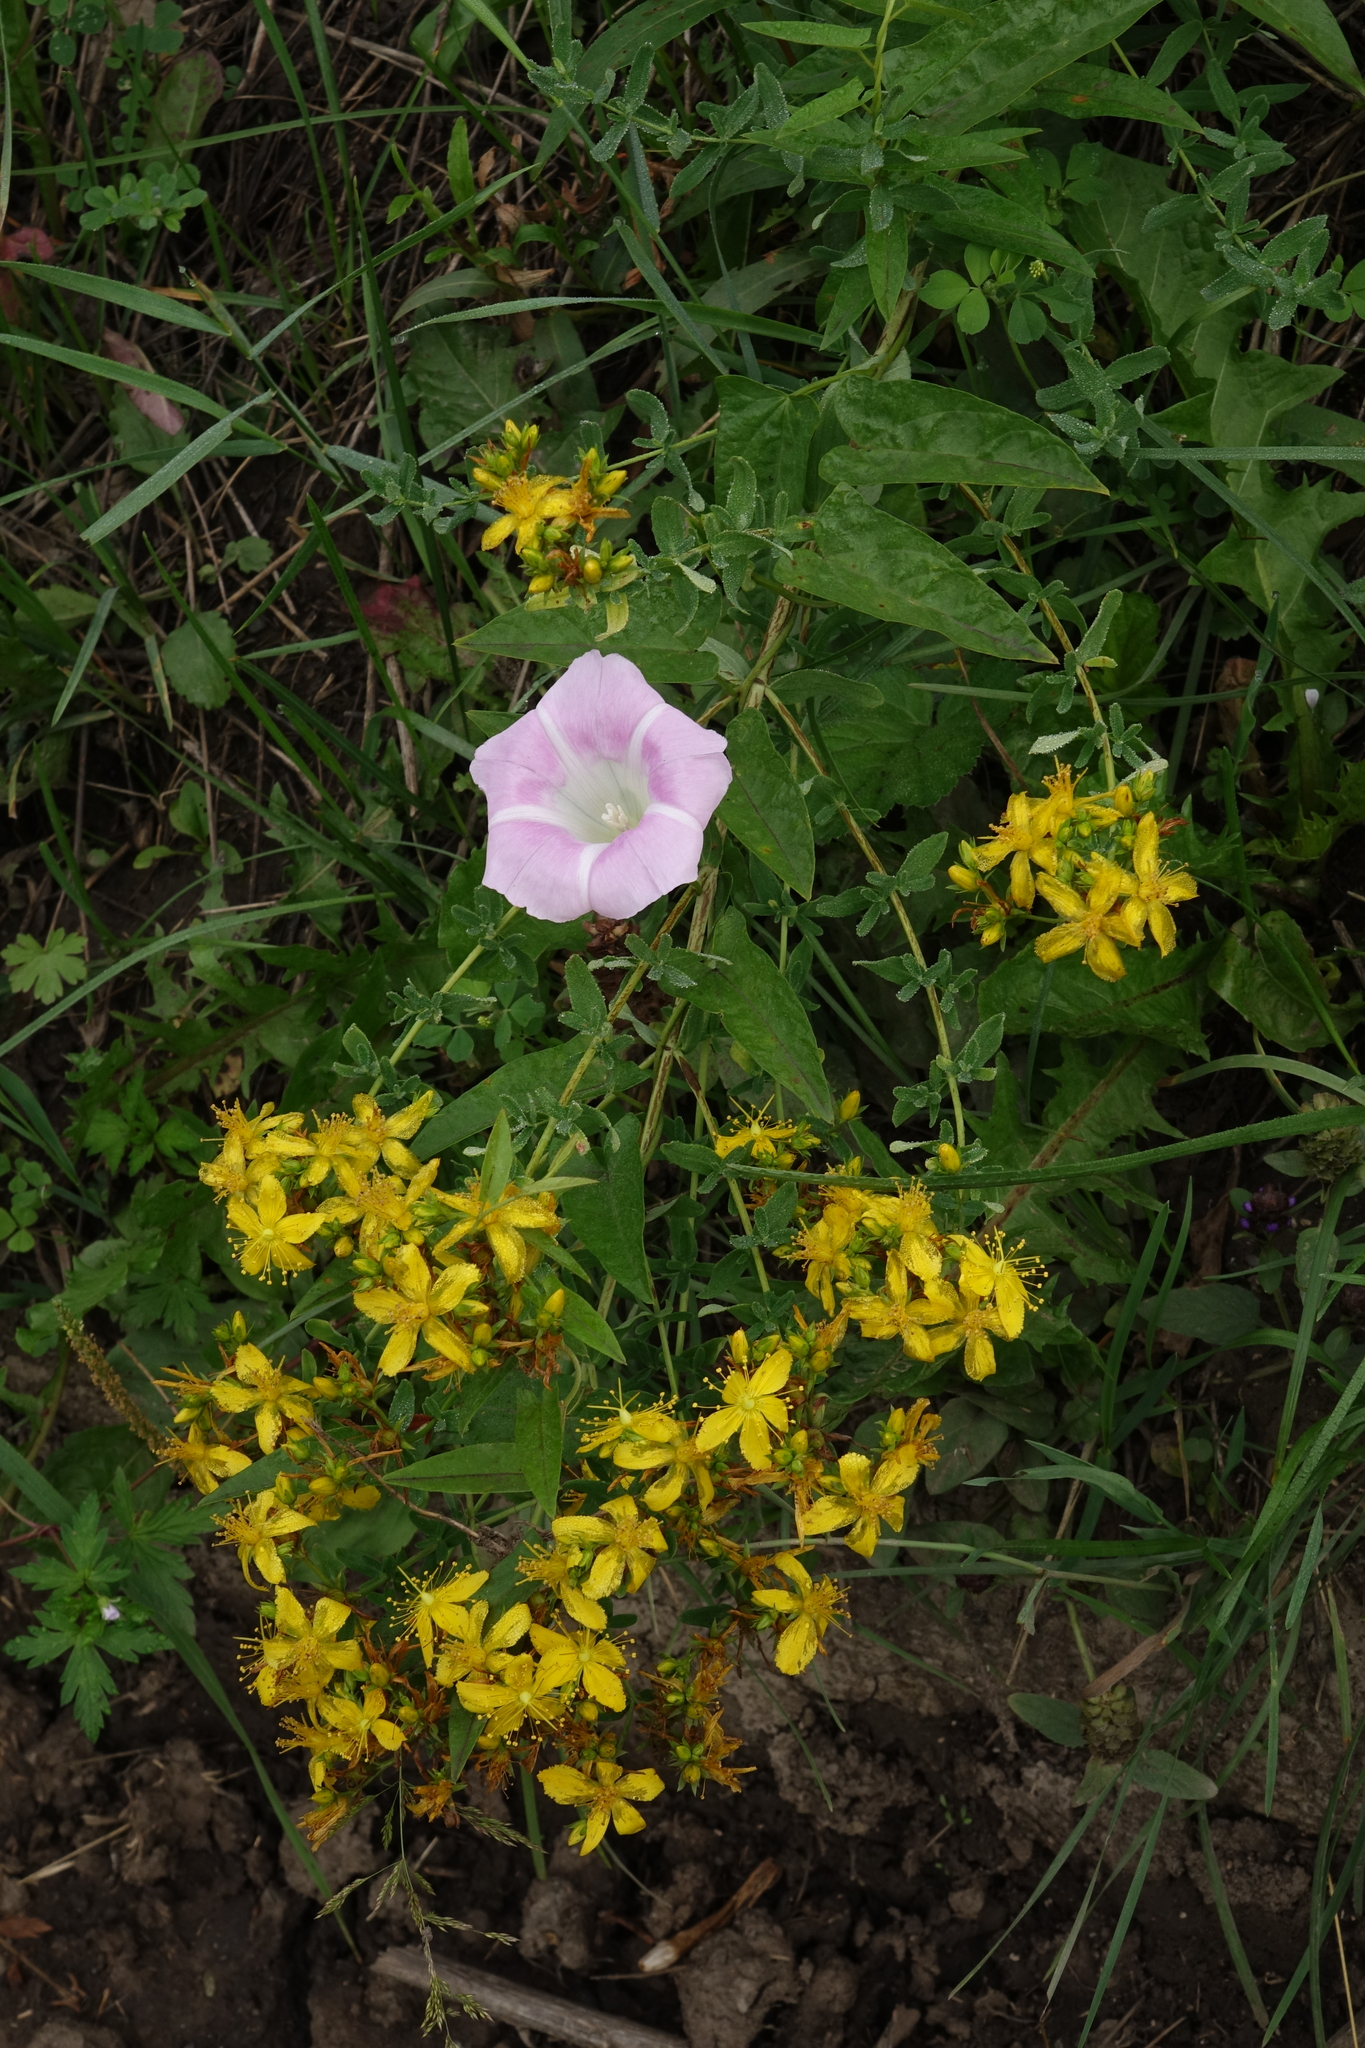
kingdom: Plantae
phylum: Tracheophyta
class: Magnoliopsida
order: Solanales
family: Convolvulaceae
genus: Calystegia
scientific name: Calystegia sepium
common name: Hedge bindweed
